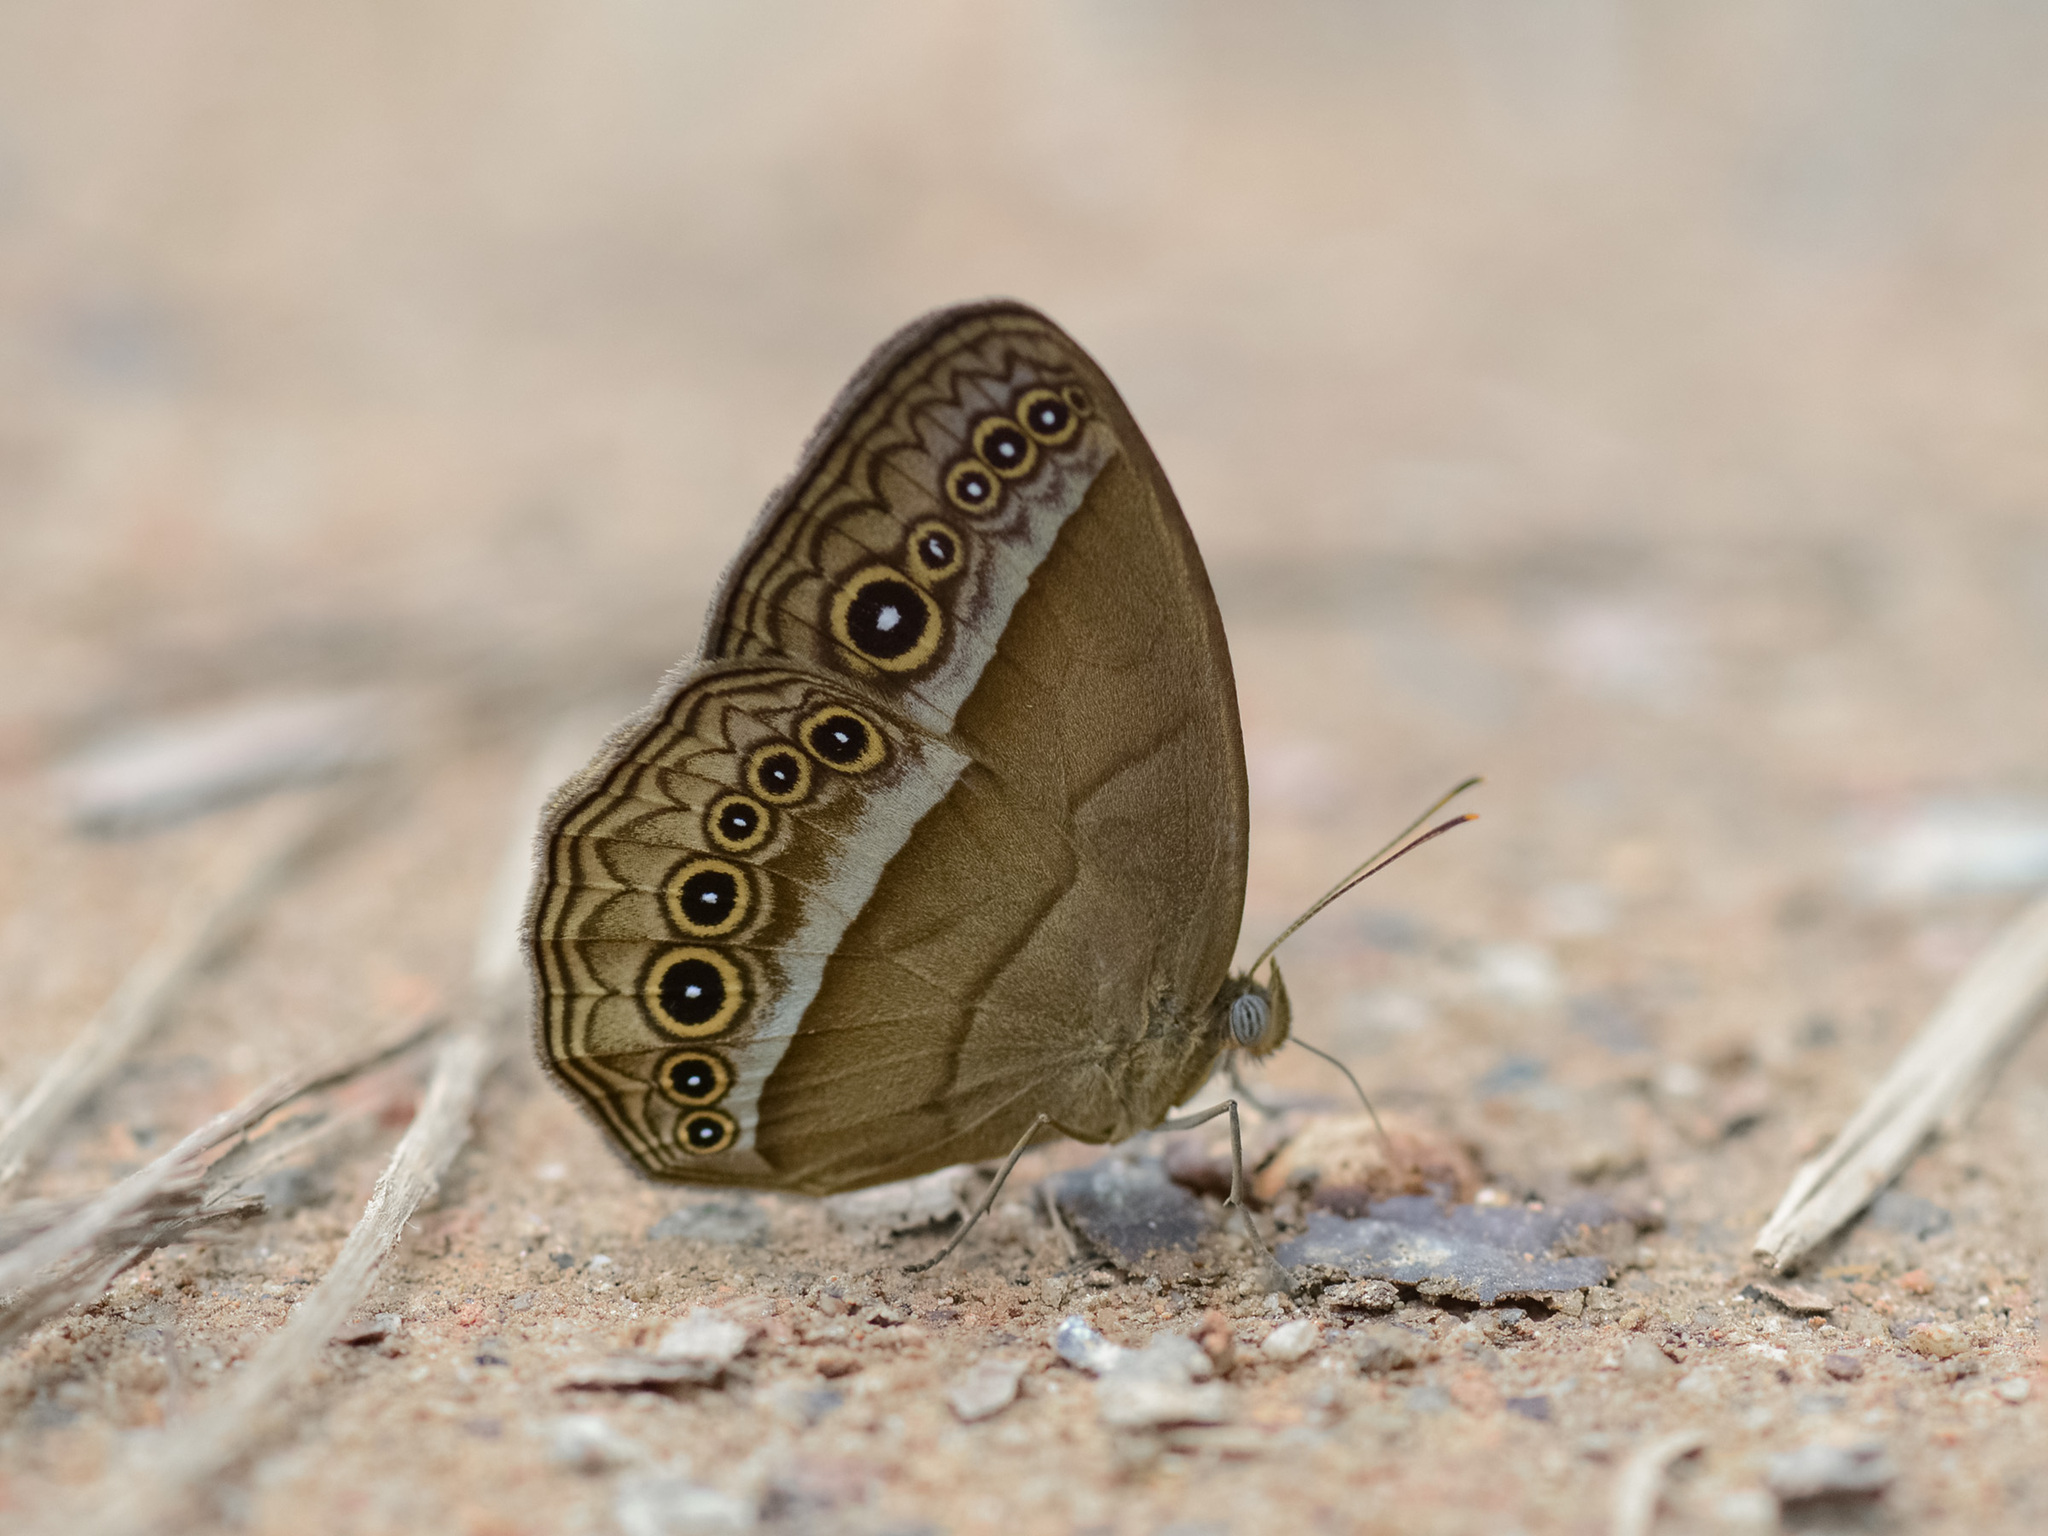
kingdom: Animalia
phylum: Arthropoda
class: Insecta
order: Lepidoptera
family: Nymphalidae
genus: Mycalesis
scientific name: Mycalesis orseis
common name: Purple bushbrown
